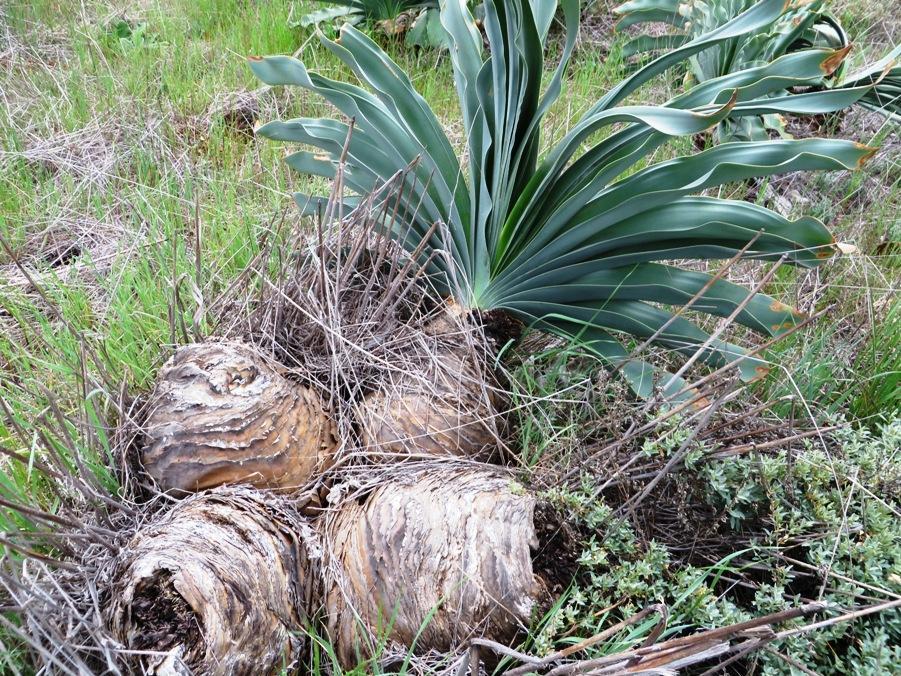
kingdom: Plantae
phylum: Tracheophyta
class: Liliopsida
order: Asparagales
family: Amaryllidaceae
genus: Boophone
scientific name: Boophone haemanthoides
